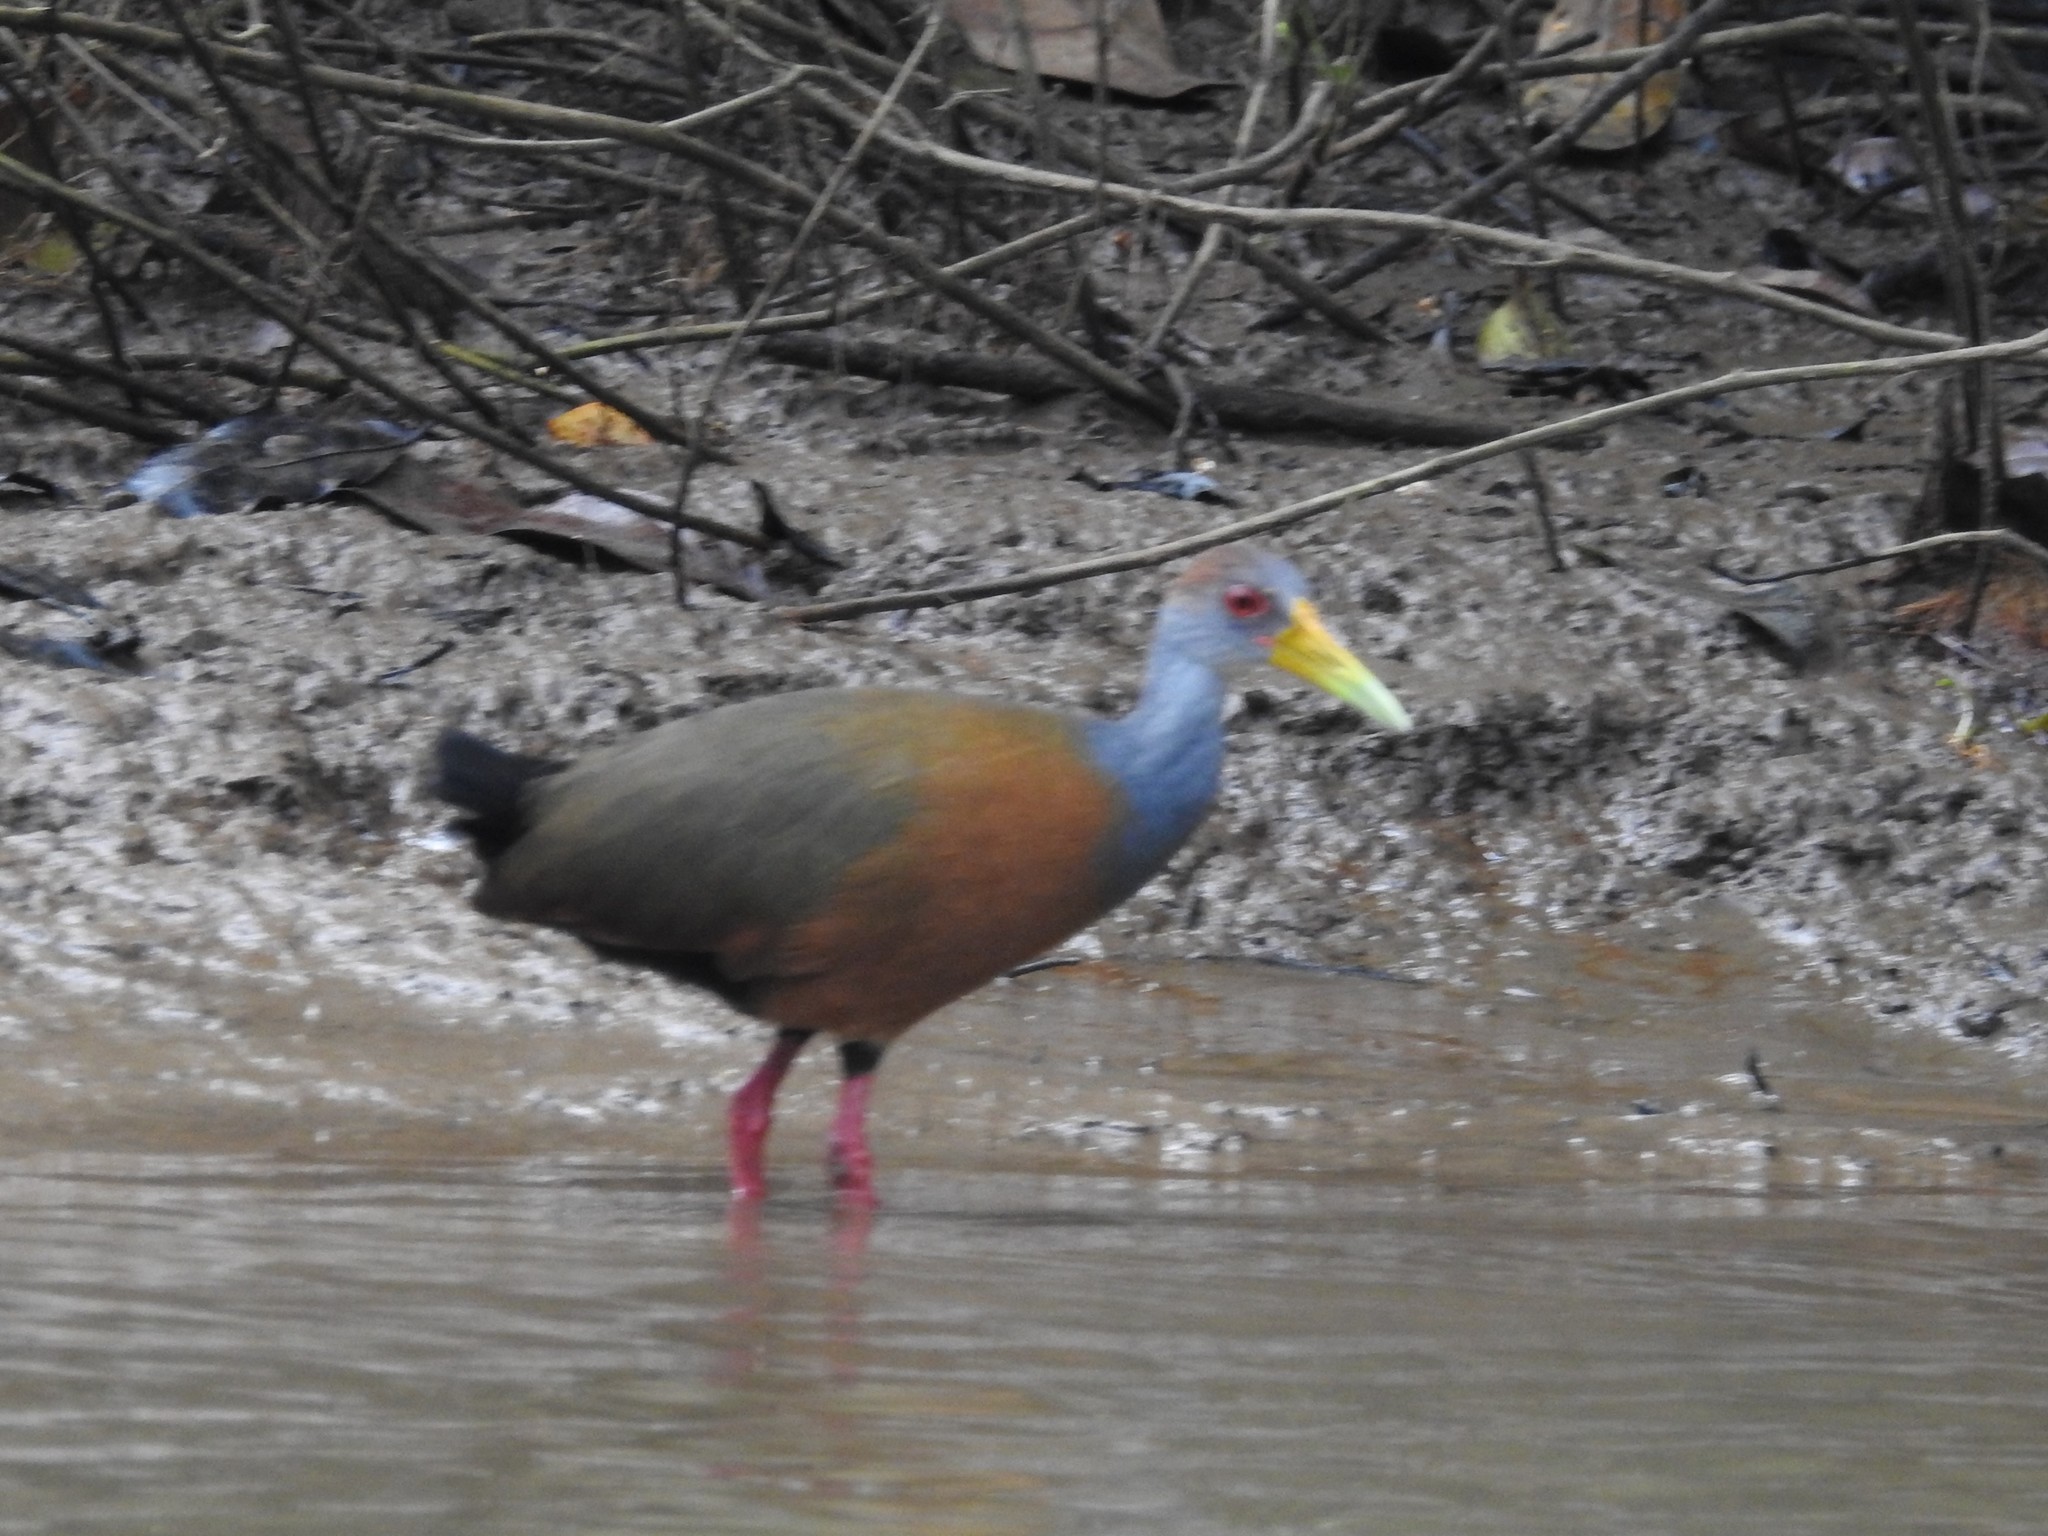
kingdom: Animalia
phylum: Chordata
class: Aves
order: Gruiformes
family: Rallidae
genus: Aramides
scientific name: Aramides albiventris
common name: Russet-naped wood-rail
